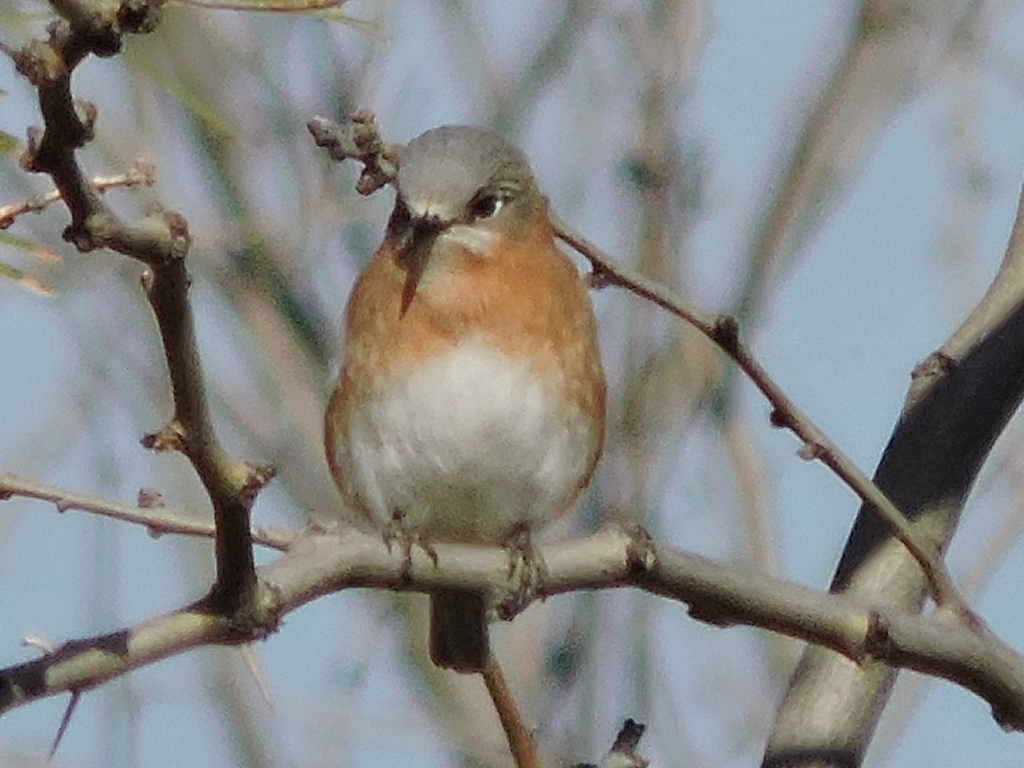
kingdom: Animalia
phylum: Chordata
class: Aves
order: Passeriformes
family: Turdidae
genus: Sialia
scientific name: Sialia sialis
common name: Eastern bluebird
